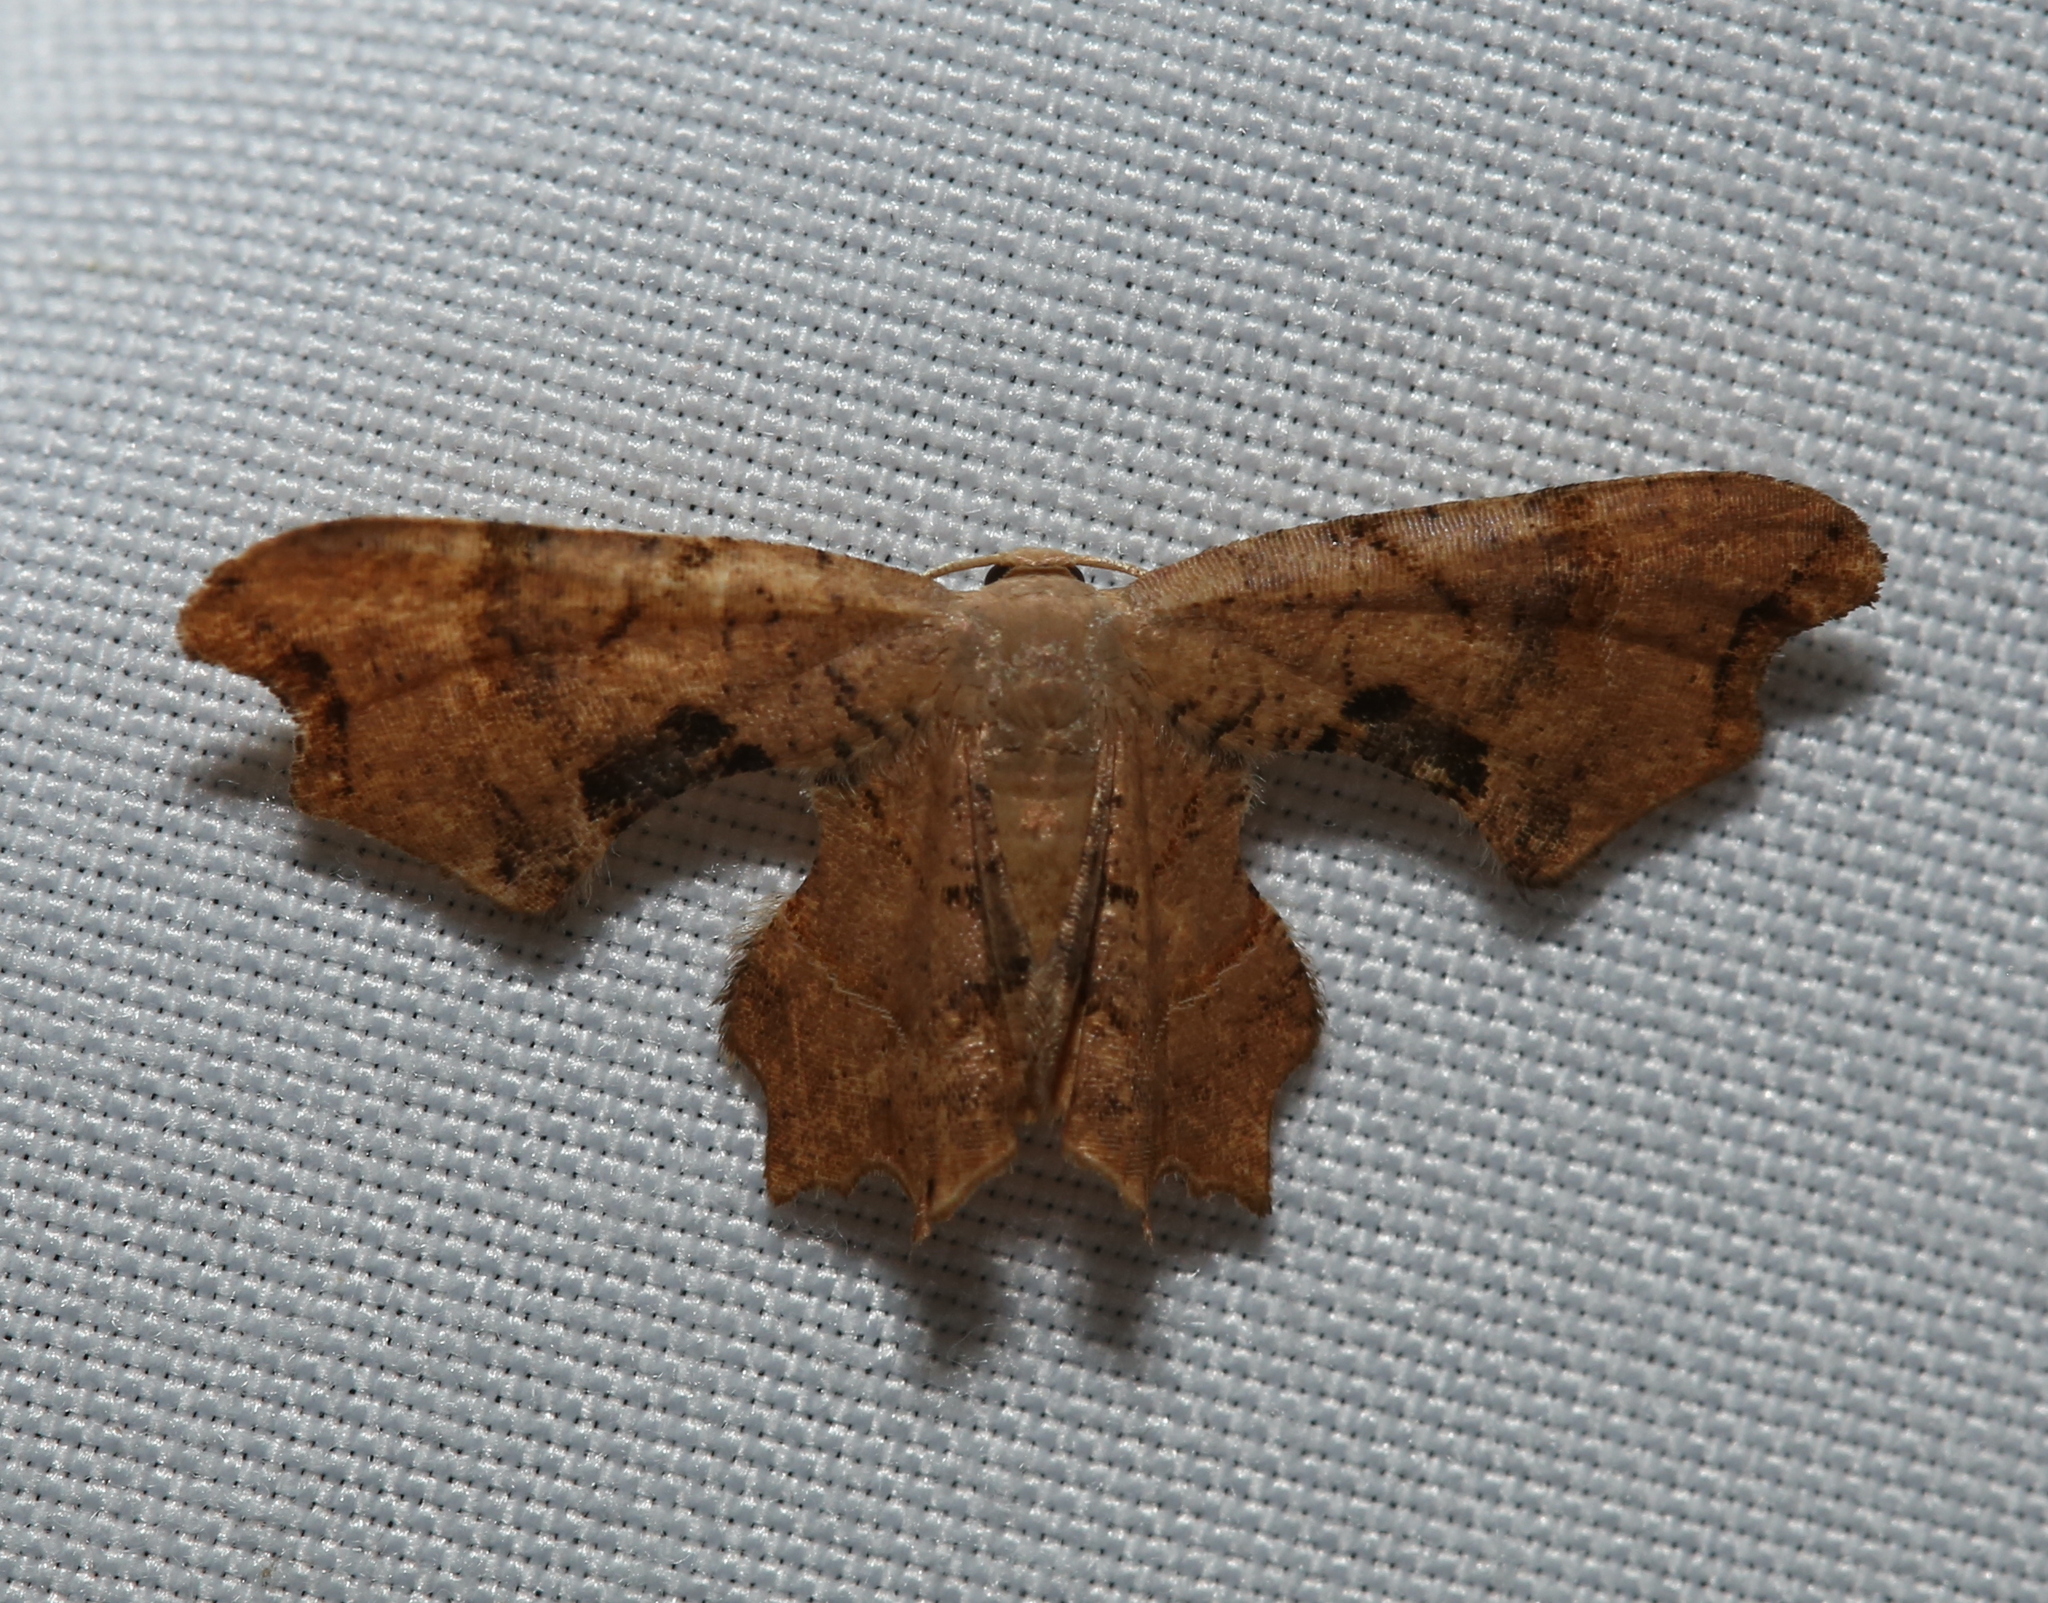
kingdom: Animalia
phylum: Arthropoda
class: Insecta
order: Lepidoptera
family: Uraniidae
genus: Epiplema
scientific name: Epiplema Calledapteryx dryopterata
